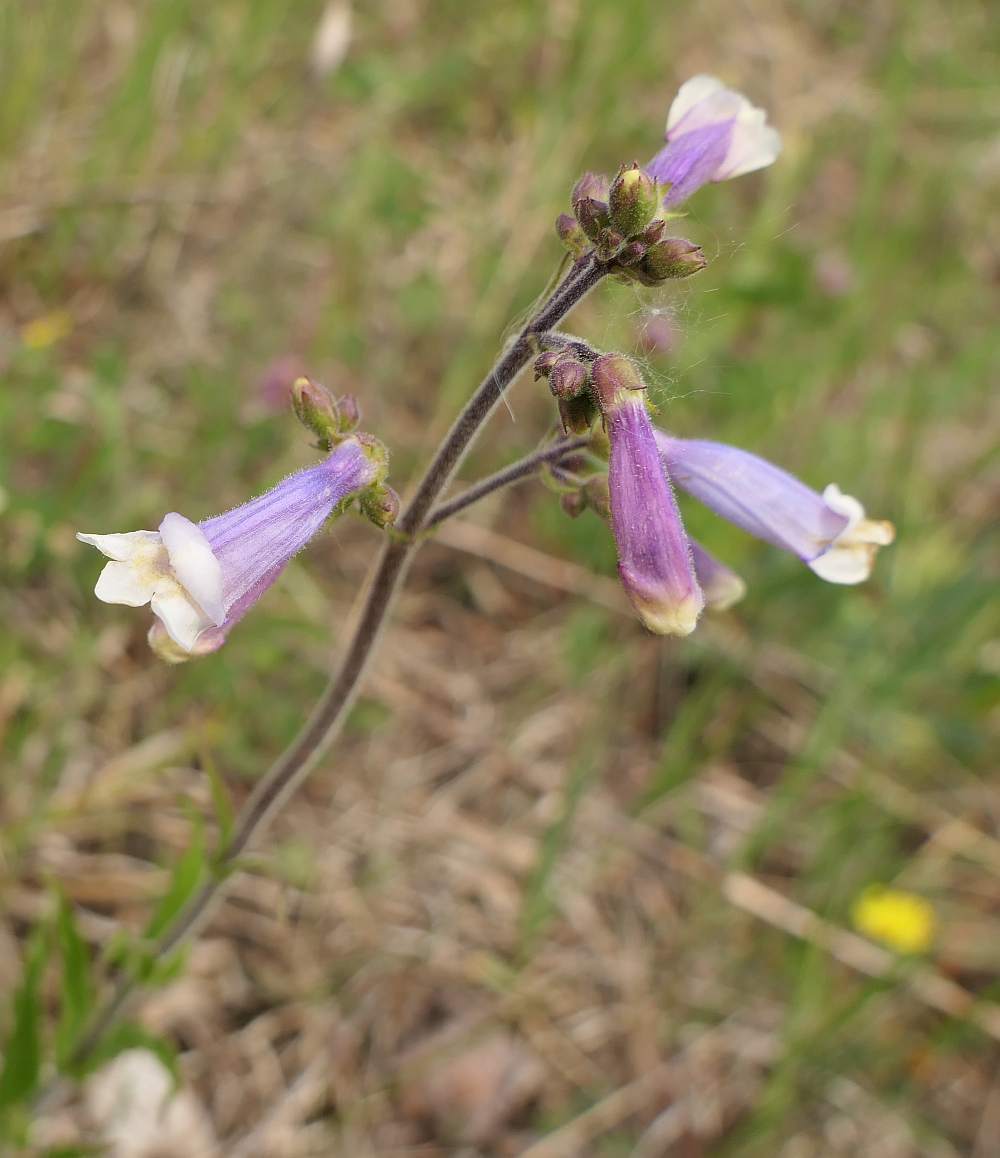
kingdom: Plantae
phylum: Tracheophyta
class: Magnoliopsida
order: Lamiales
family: Plantaginaceae
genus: Penstemon
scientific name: Penstemon hirsutus
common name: Hairy beardtongue
